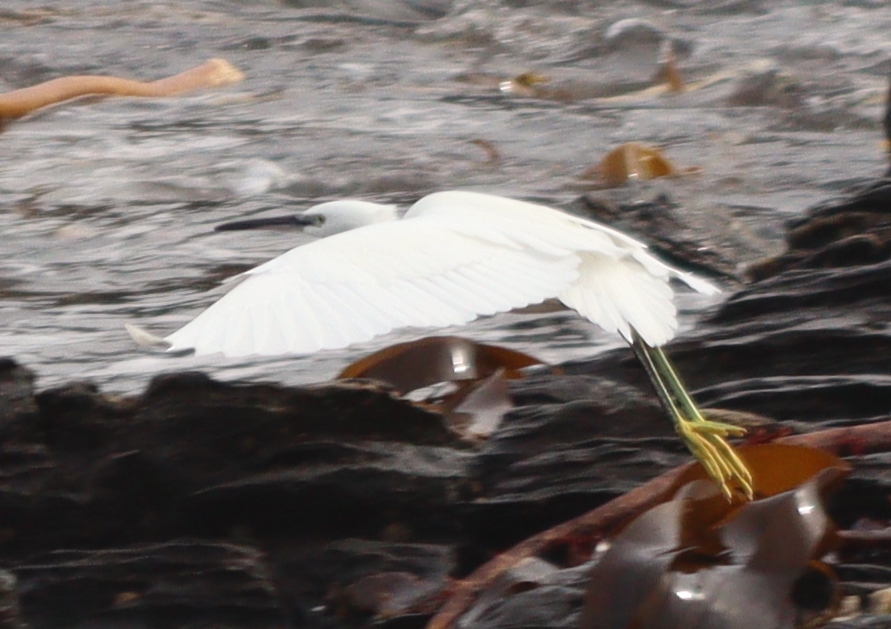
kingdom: Animalia
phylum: Chordata
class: Aves
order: Pelecaniformes
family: Ardeidae
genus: Egretta
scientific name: Egretta garzetta
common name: Little egret
